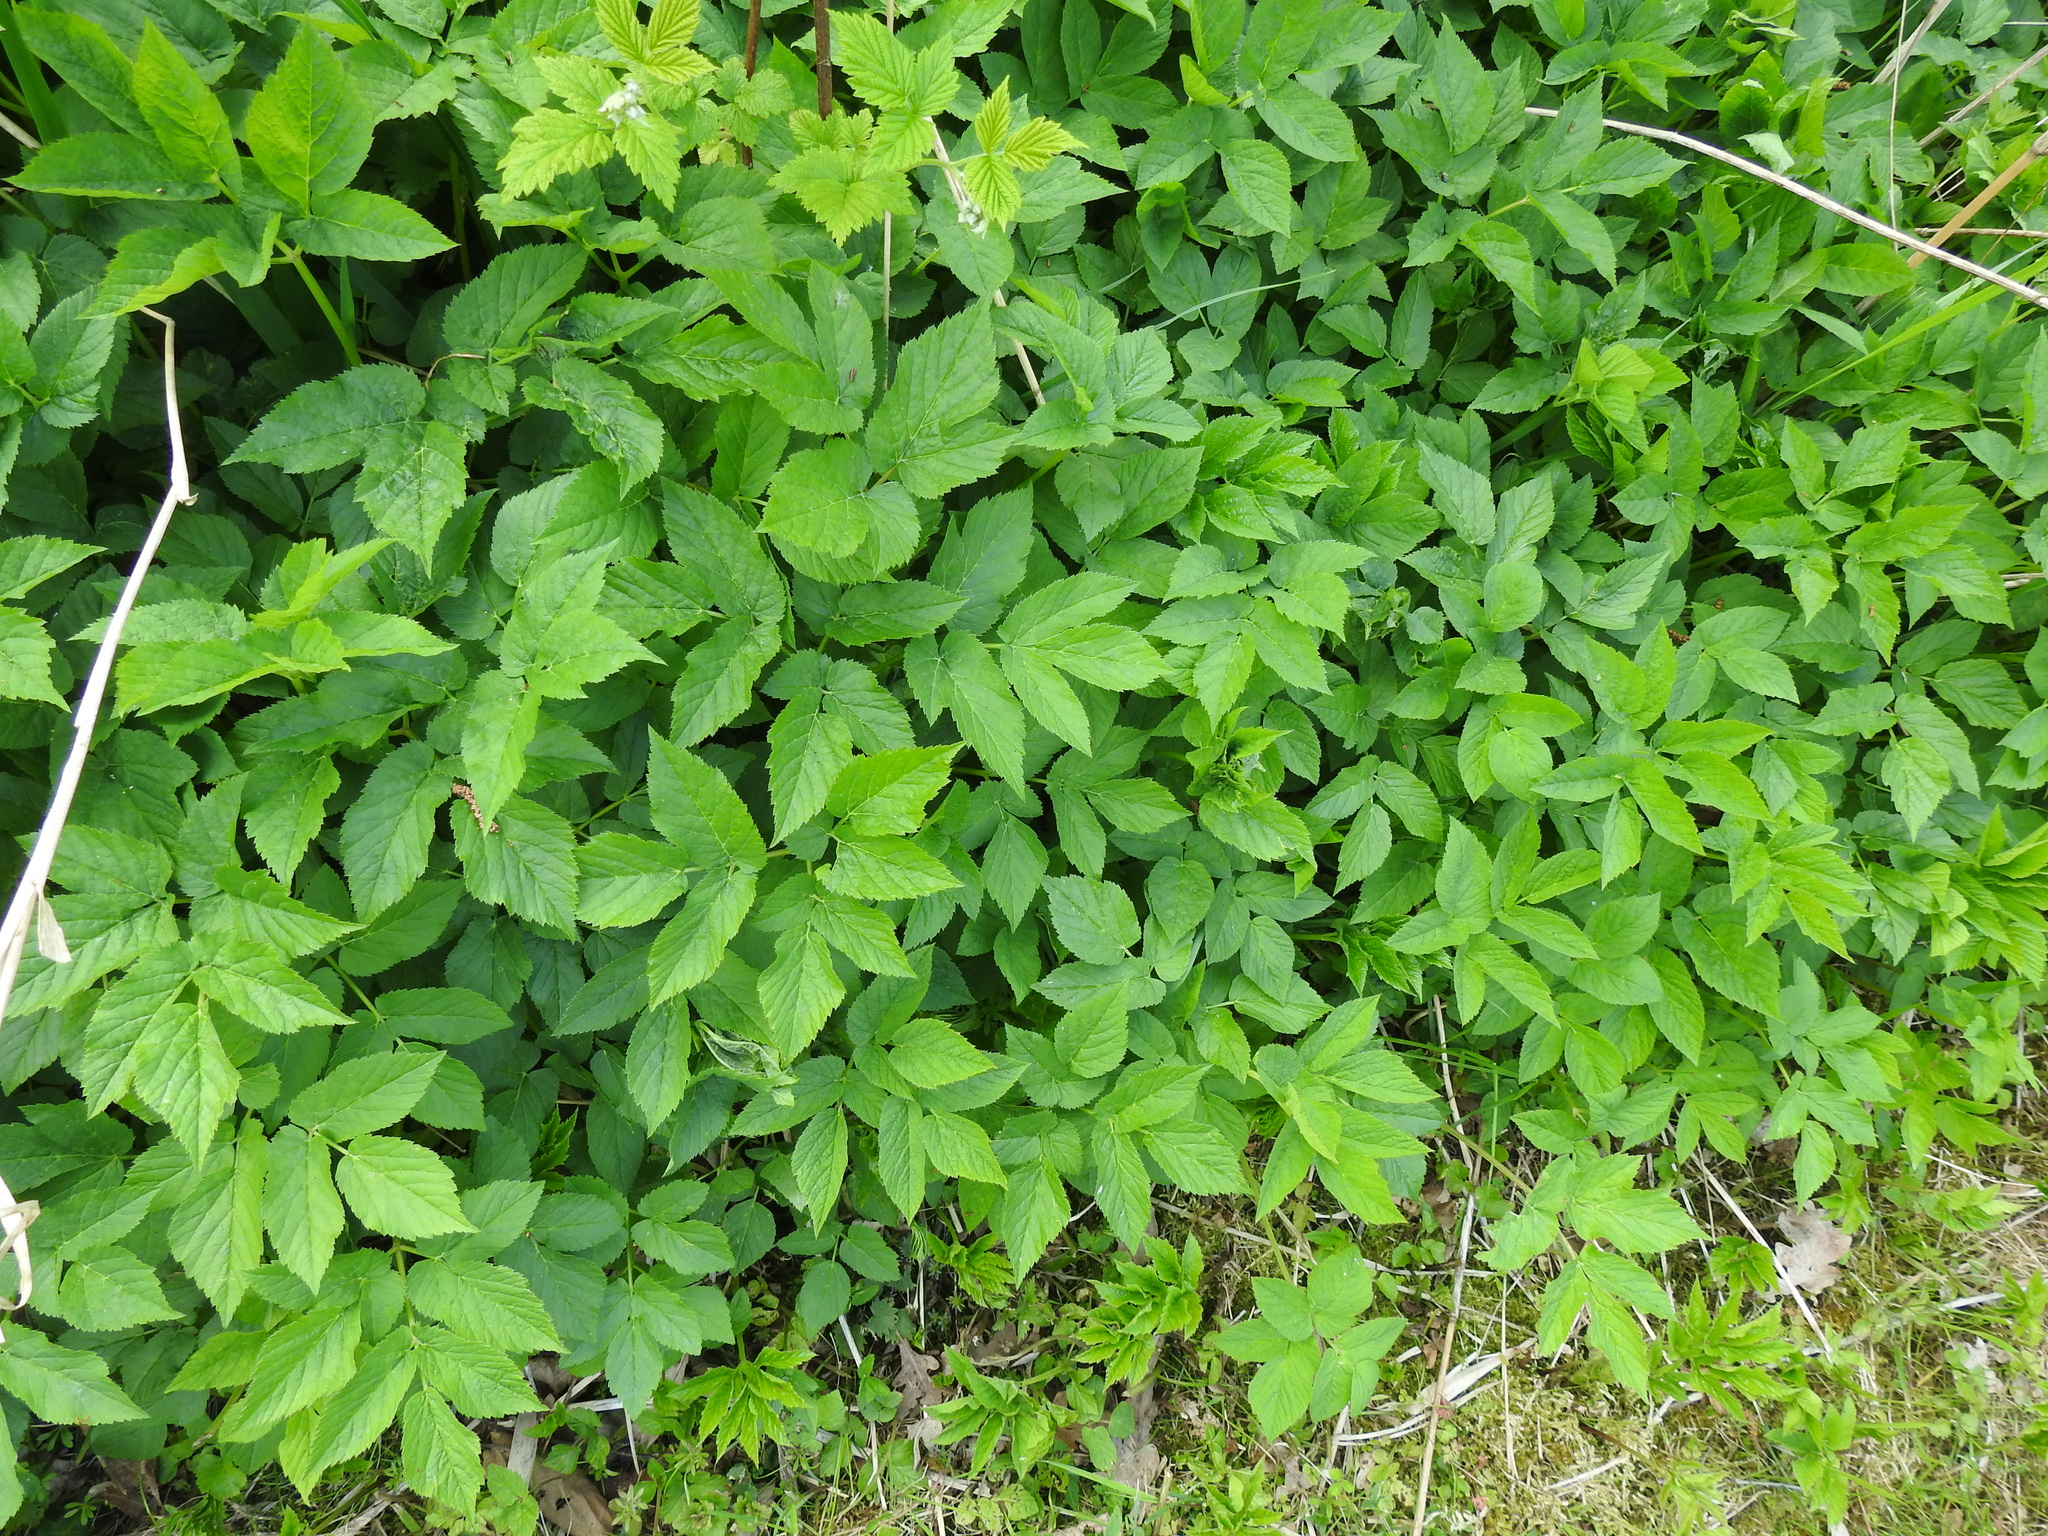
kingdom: Plantae
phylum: Tracheophyta
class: Magnoliopsida
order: Apiales
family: Apiaceae
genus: Aegopodium
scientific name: Aegopodium podagraria
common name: Ground-elder
